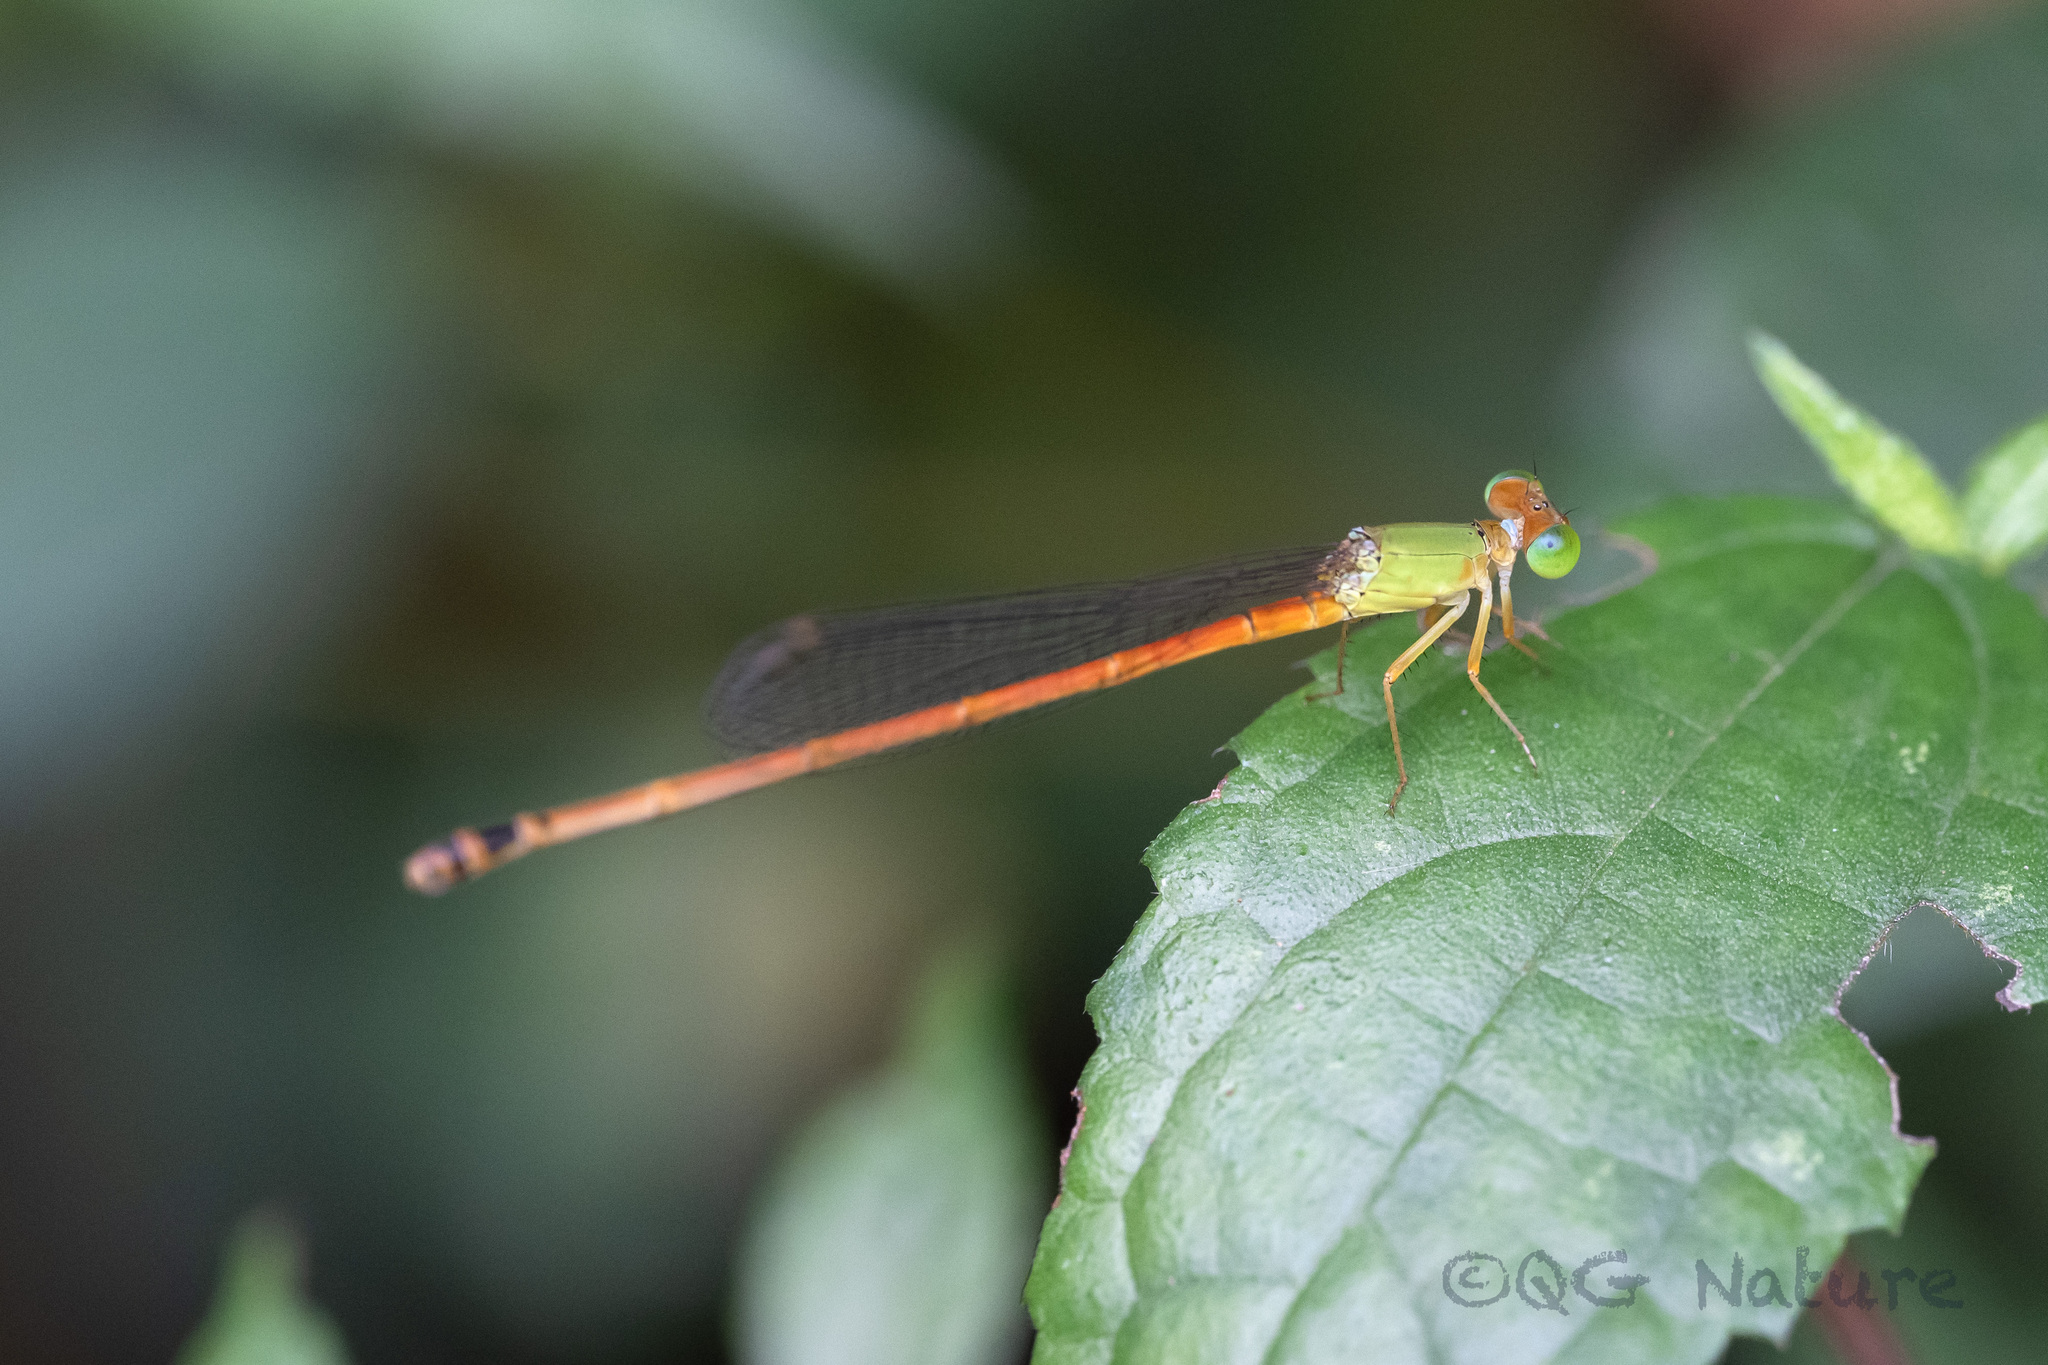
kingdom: Animalia
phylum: Arthropoda
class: Insecta
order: Odonata
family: Coenagrionidae
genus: Ceriagrion
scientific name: Ceriagrion auranticum
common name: Orange-tailed sprite
